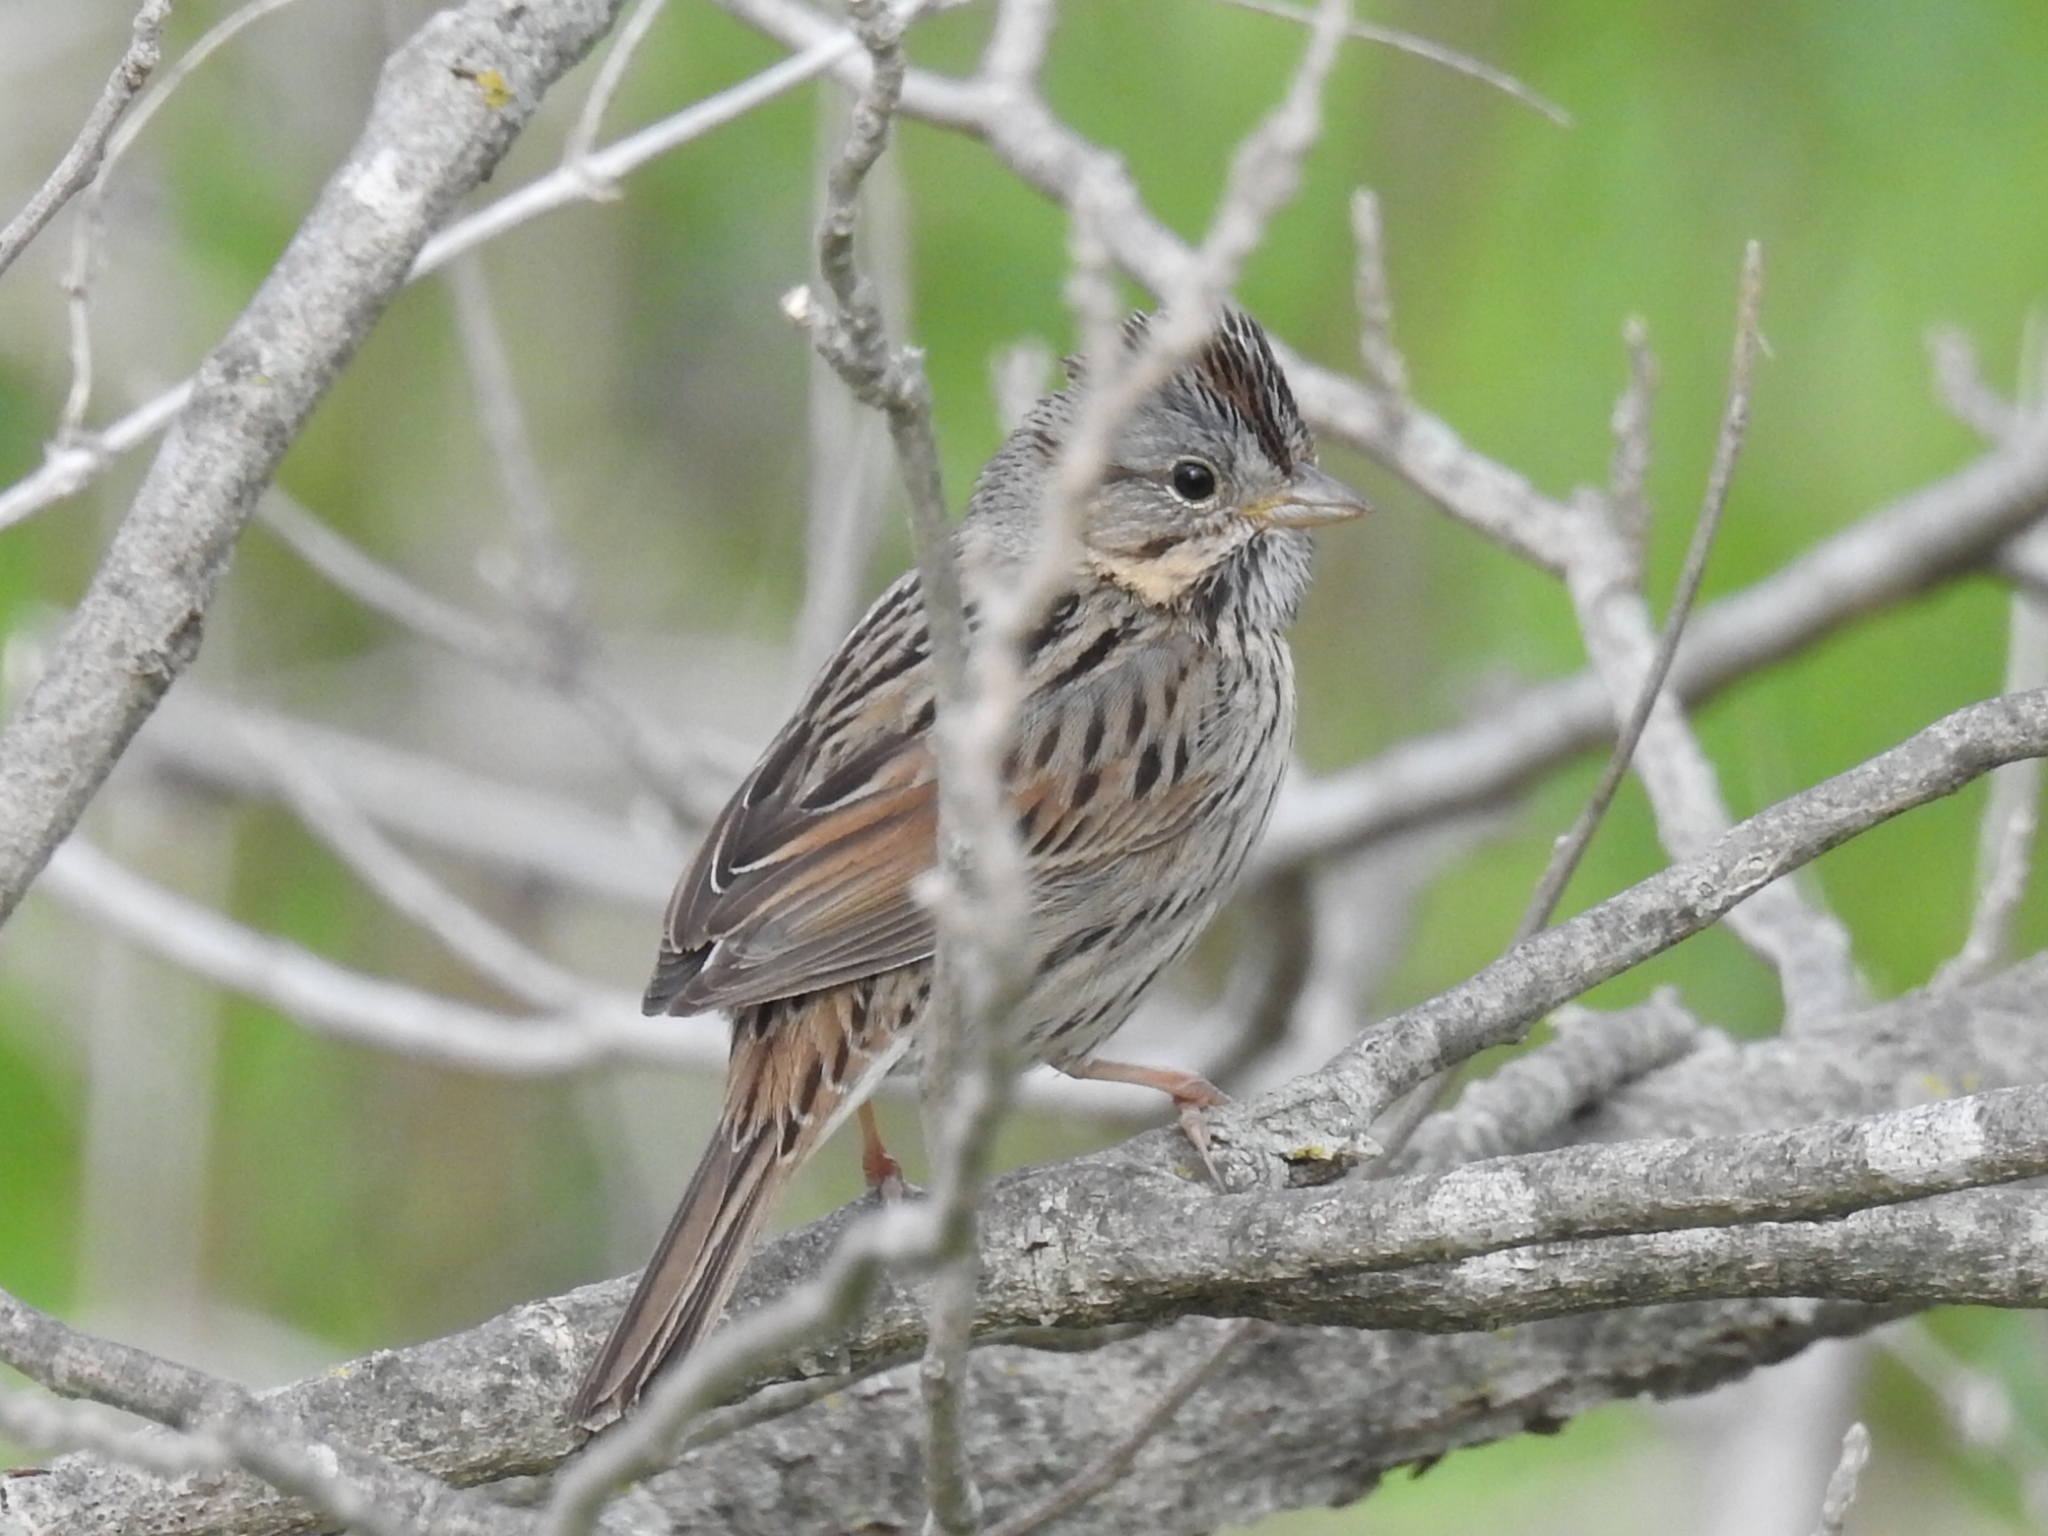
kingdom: Animalia
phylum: Chordata
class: Aves
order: Passeriformes
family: Passerellidae
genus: Melospiza
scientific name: Melospiza lincolnii
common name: Lincoln's sparrow
